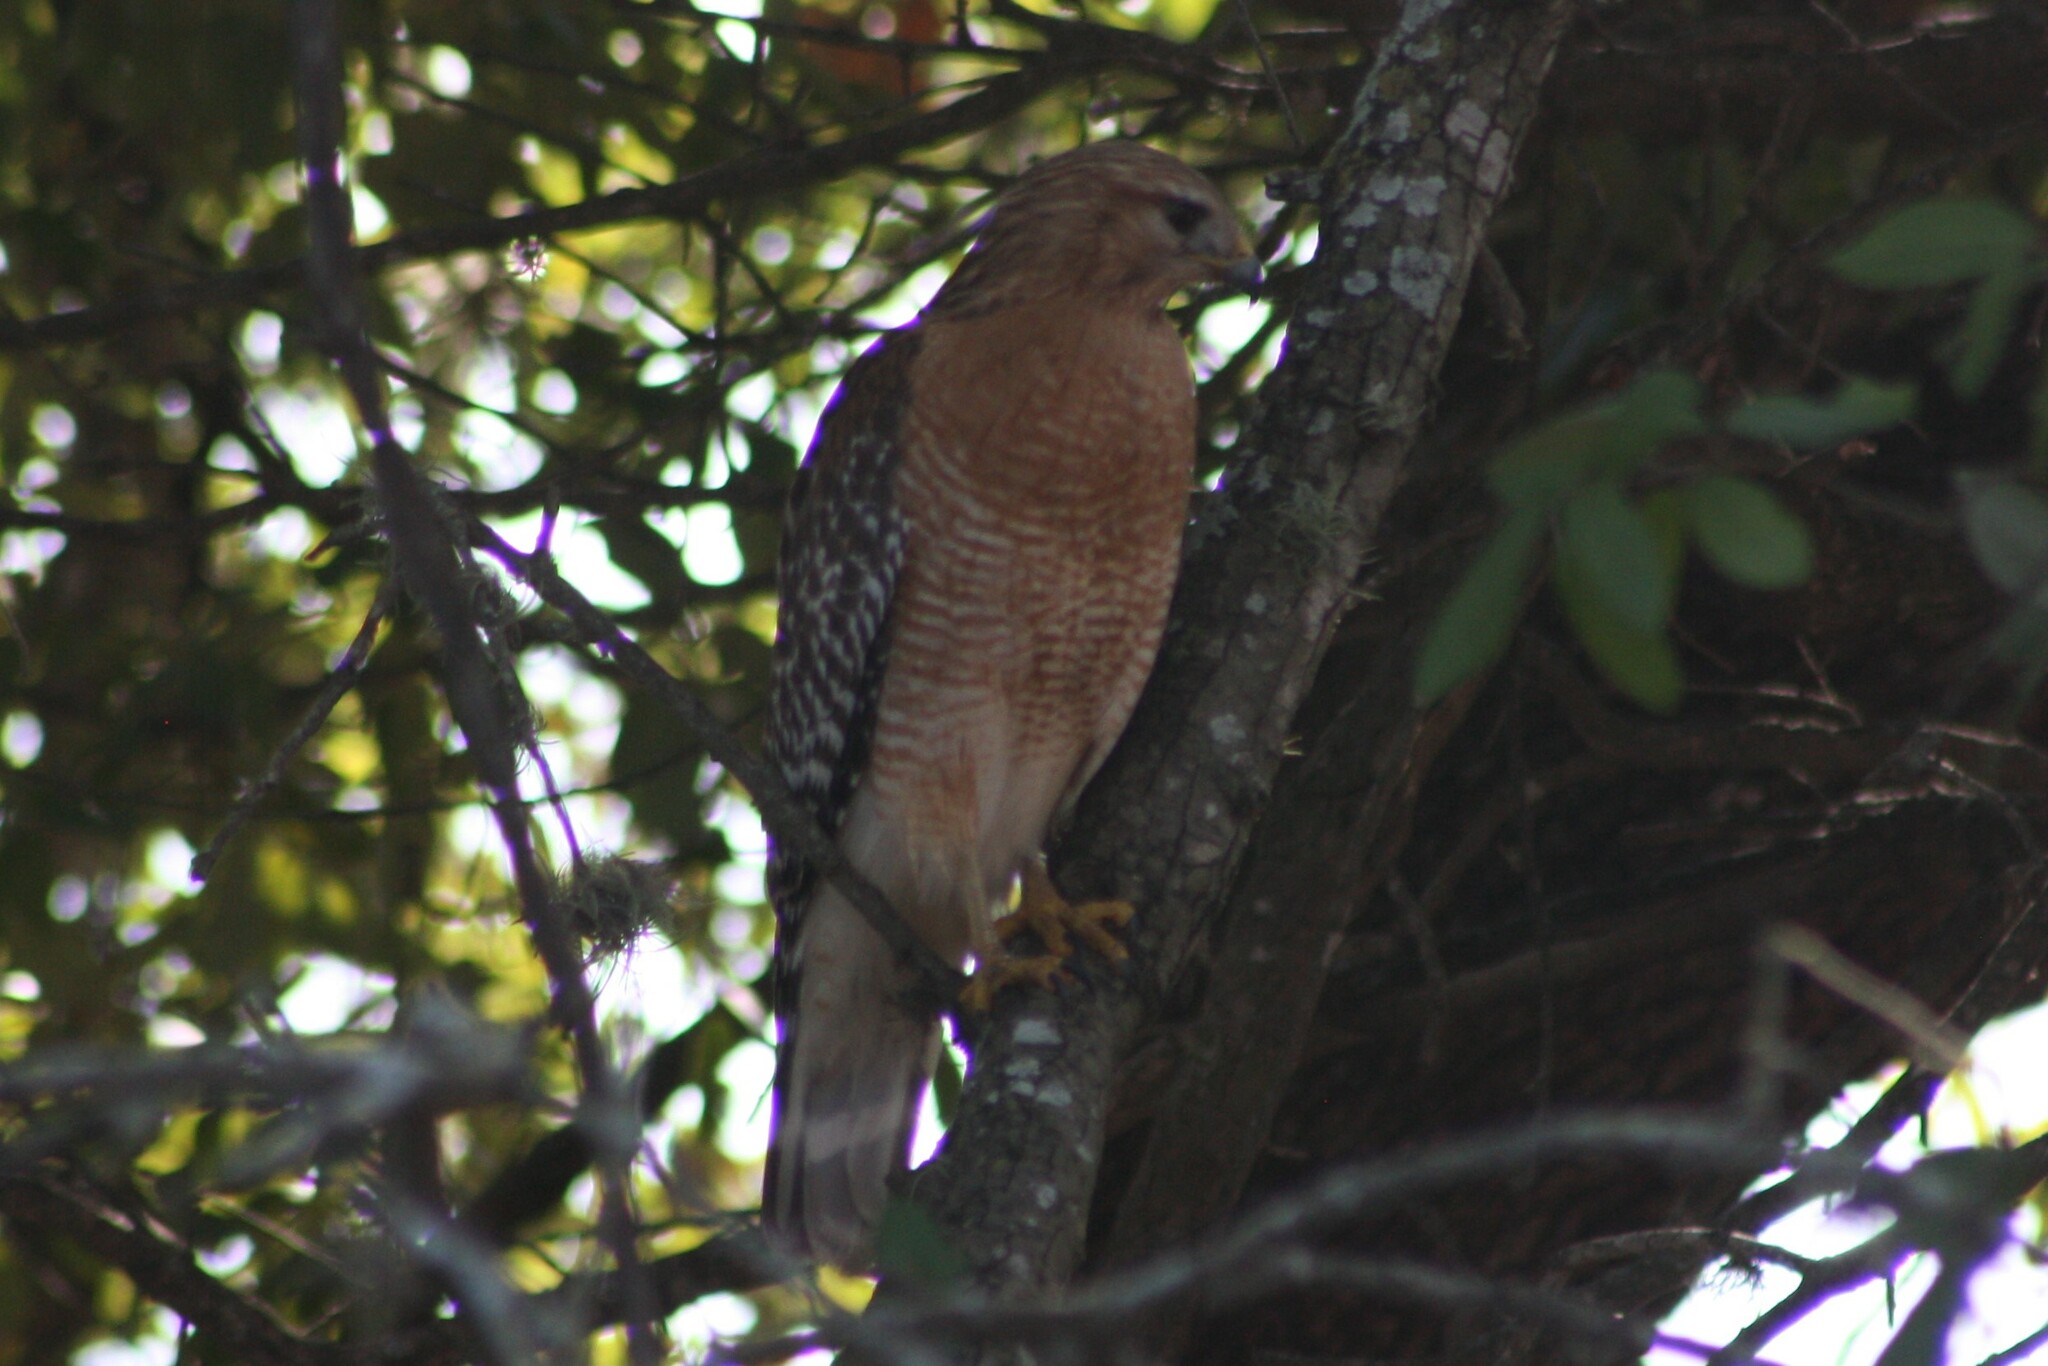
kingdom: Animalia
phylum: Chordata
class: Aves
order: Accipitriformes
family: Accipitridae
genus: Buteo
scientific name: Buteo lineatus
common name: Red-shouldered hawk
